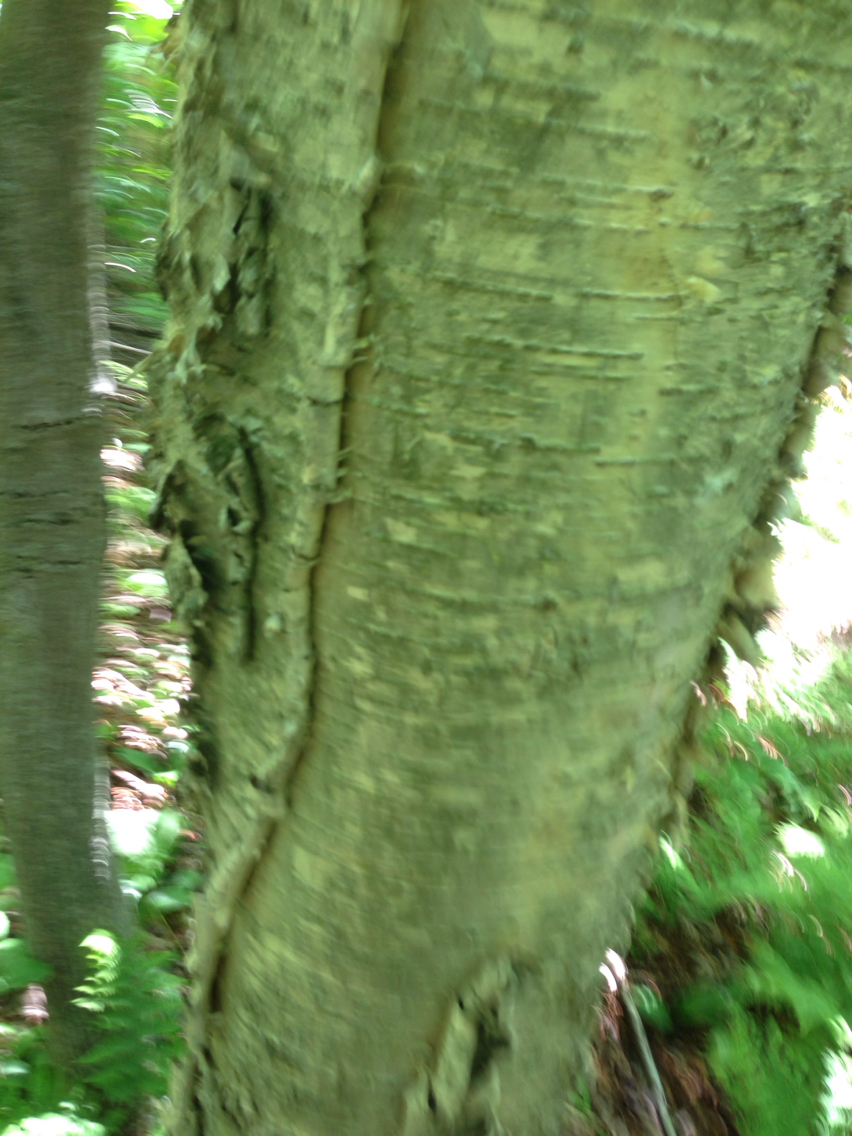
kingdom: Plantae
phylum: Tracheophyta
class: Magnoliopsida
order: Fagales
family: Betulaceae
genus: Betula
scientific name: Betula alleghaniensis
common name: Yellow birch
